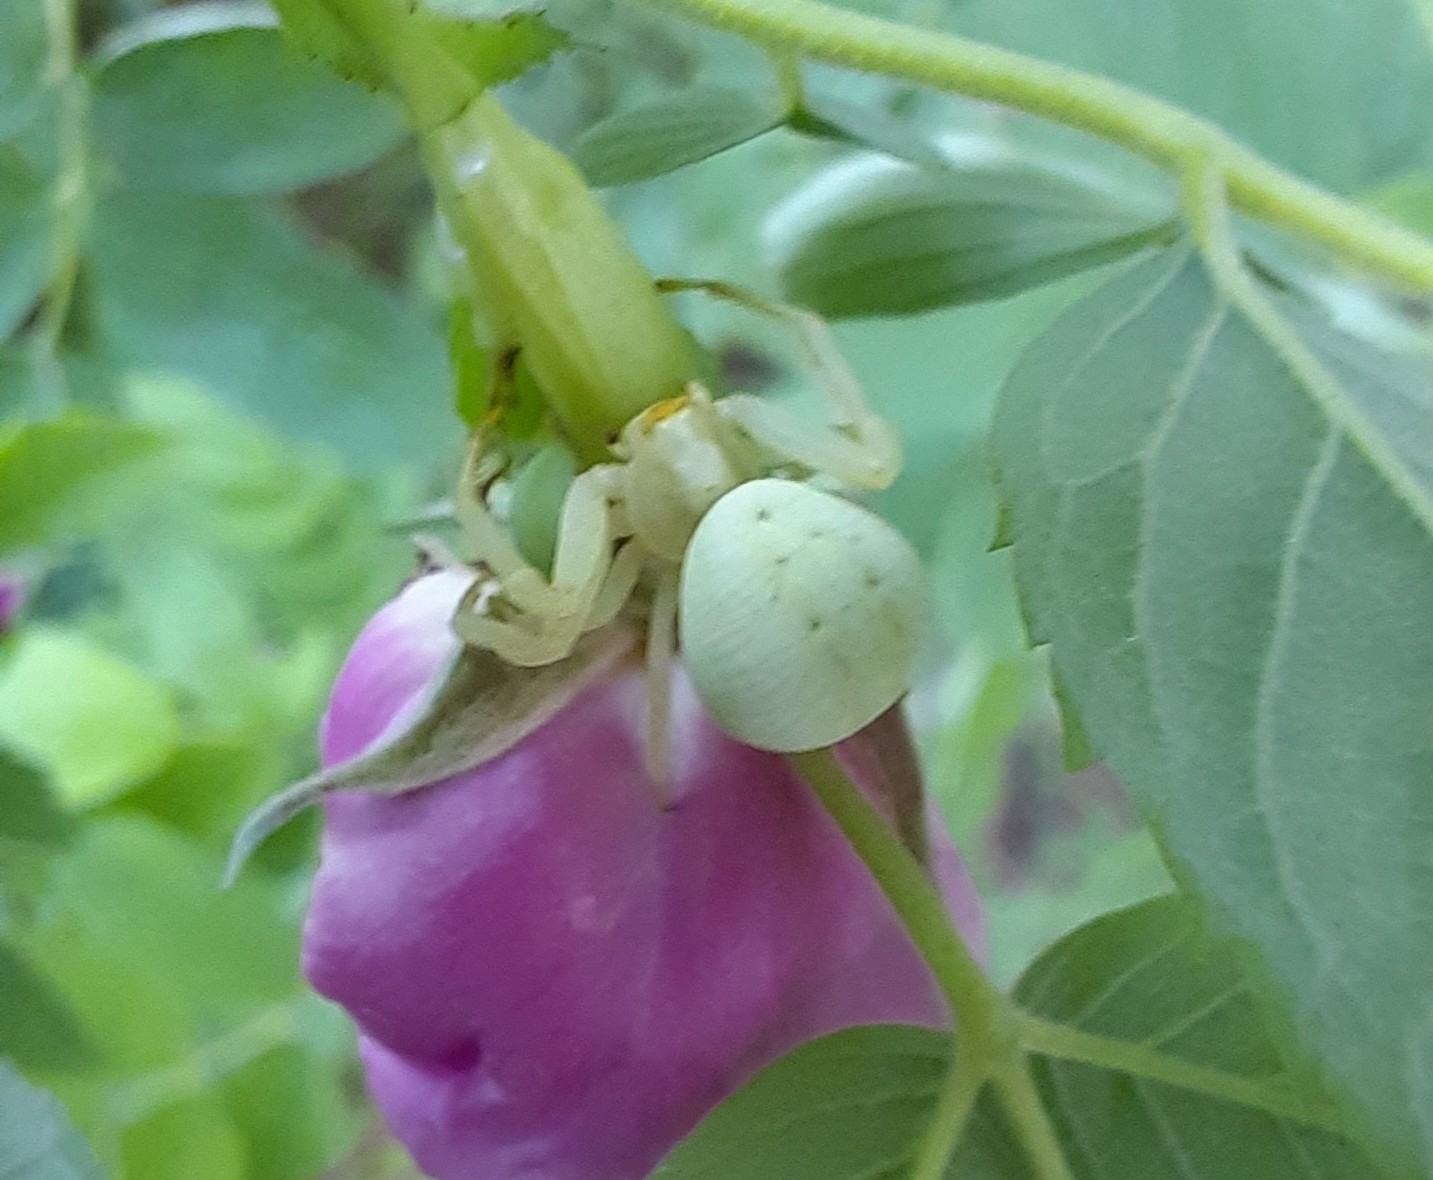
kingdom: Animalia
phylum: Arthropoda
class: Arachnida
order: Araneae
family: Thomisidae
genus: Misumena
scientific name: Misumena vatia
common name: Goldenrod crab spider
